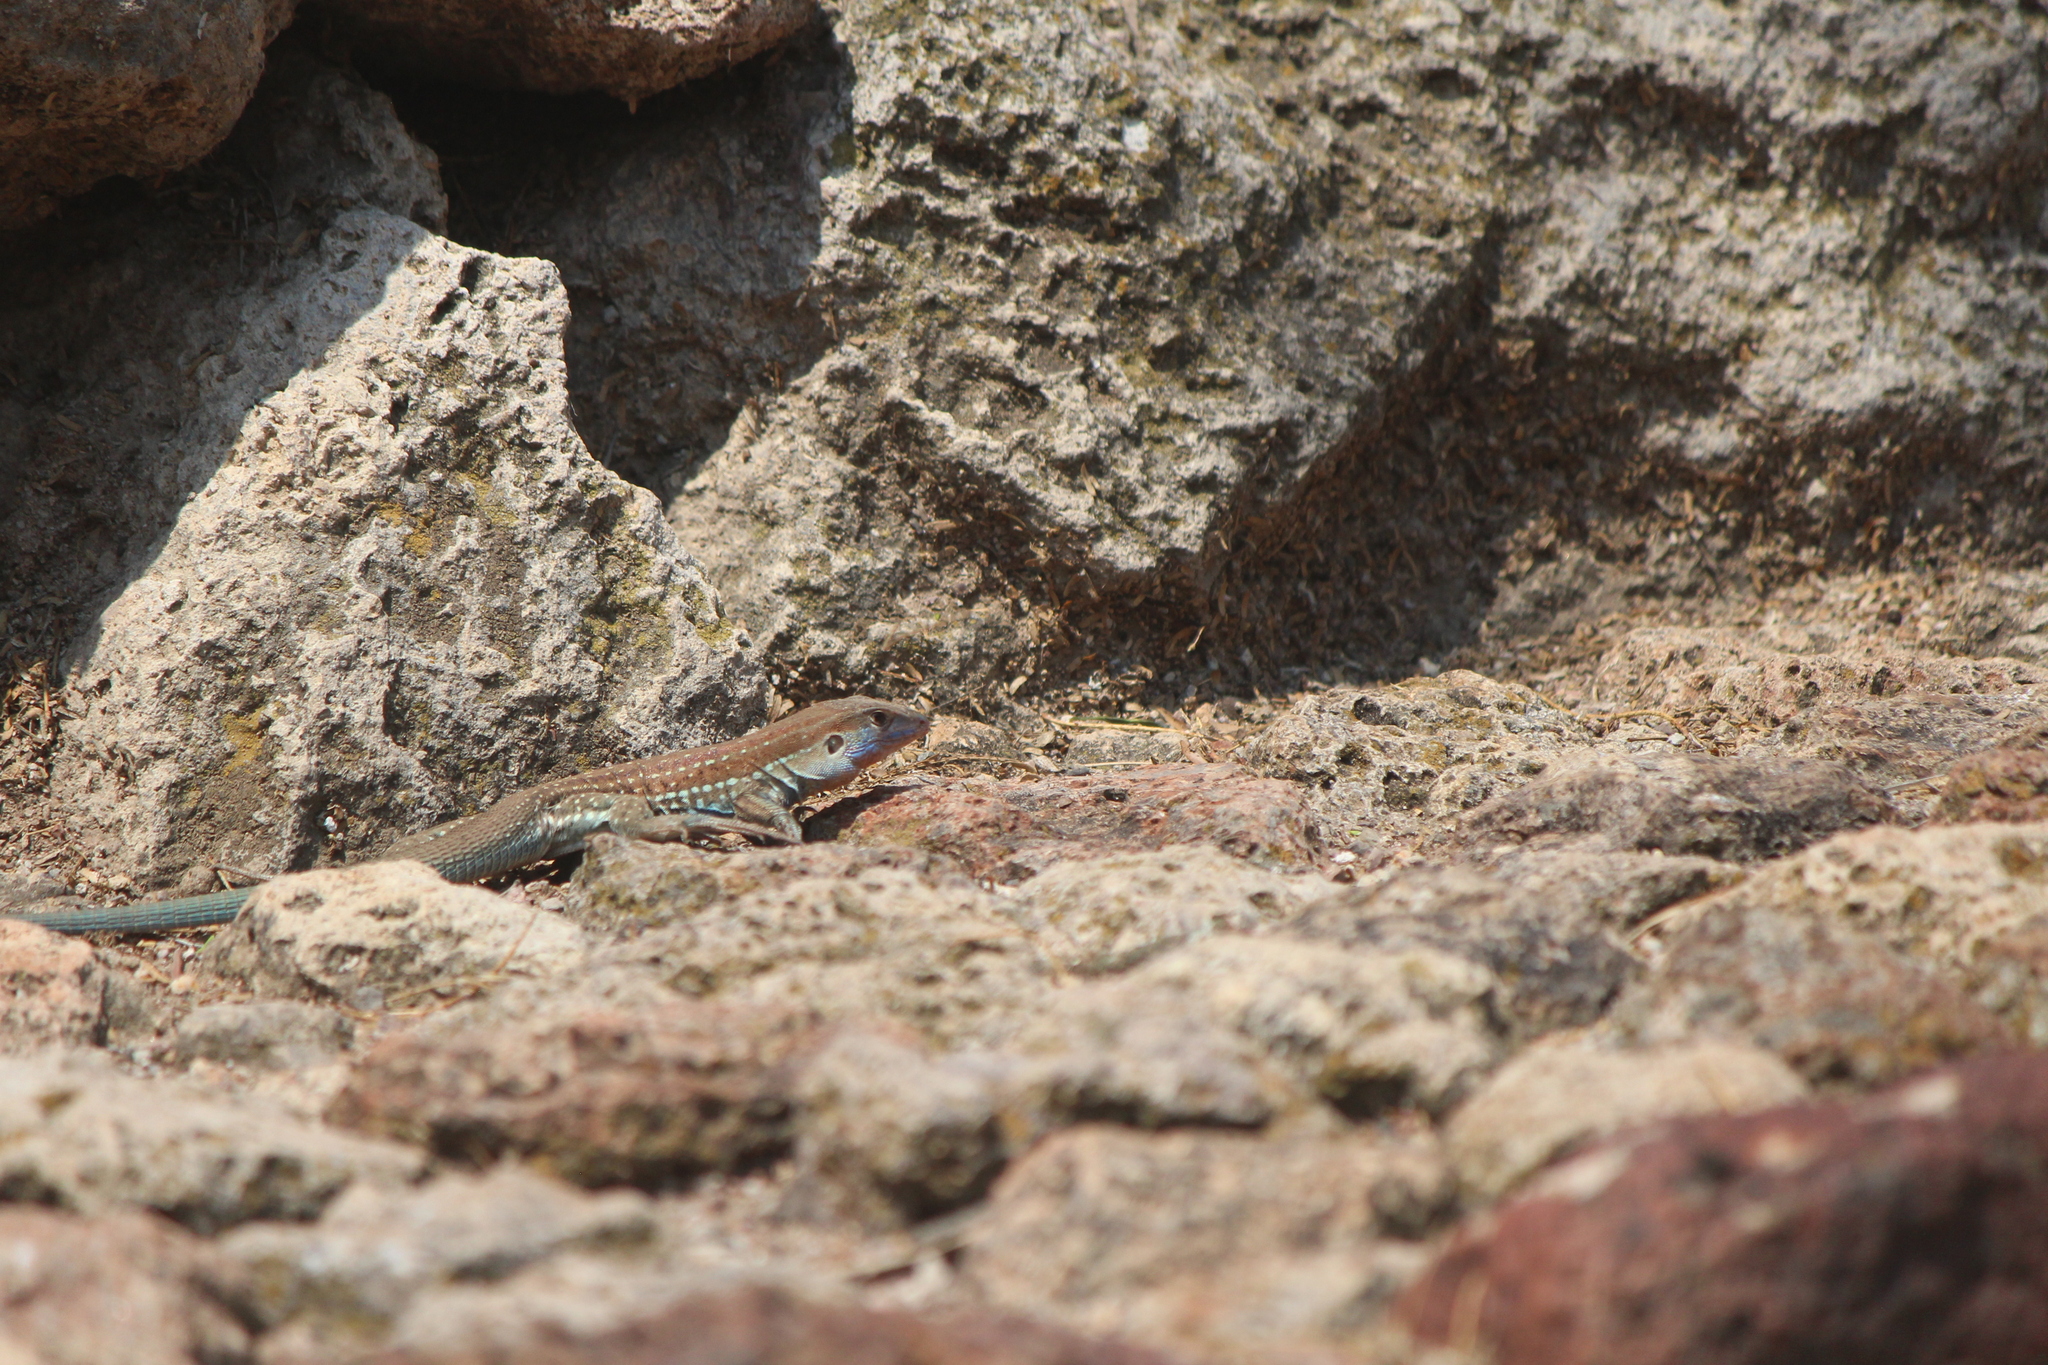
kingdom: Animalia
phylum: Chordata
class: Squamata
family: Teiidae
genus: Aspidoscelis
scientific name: Aspidoscelis gularis
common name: Eastern spotted whiptail
